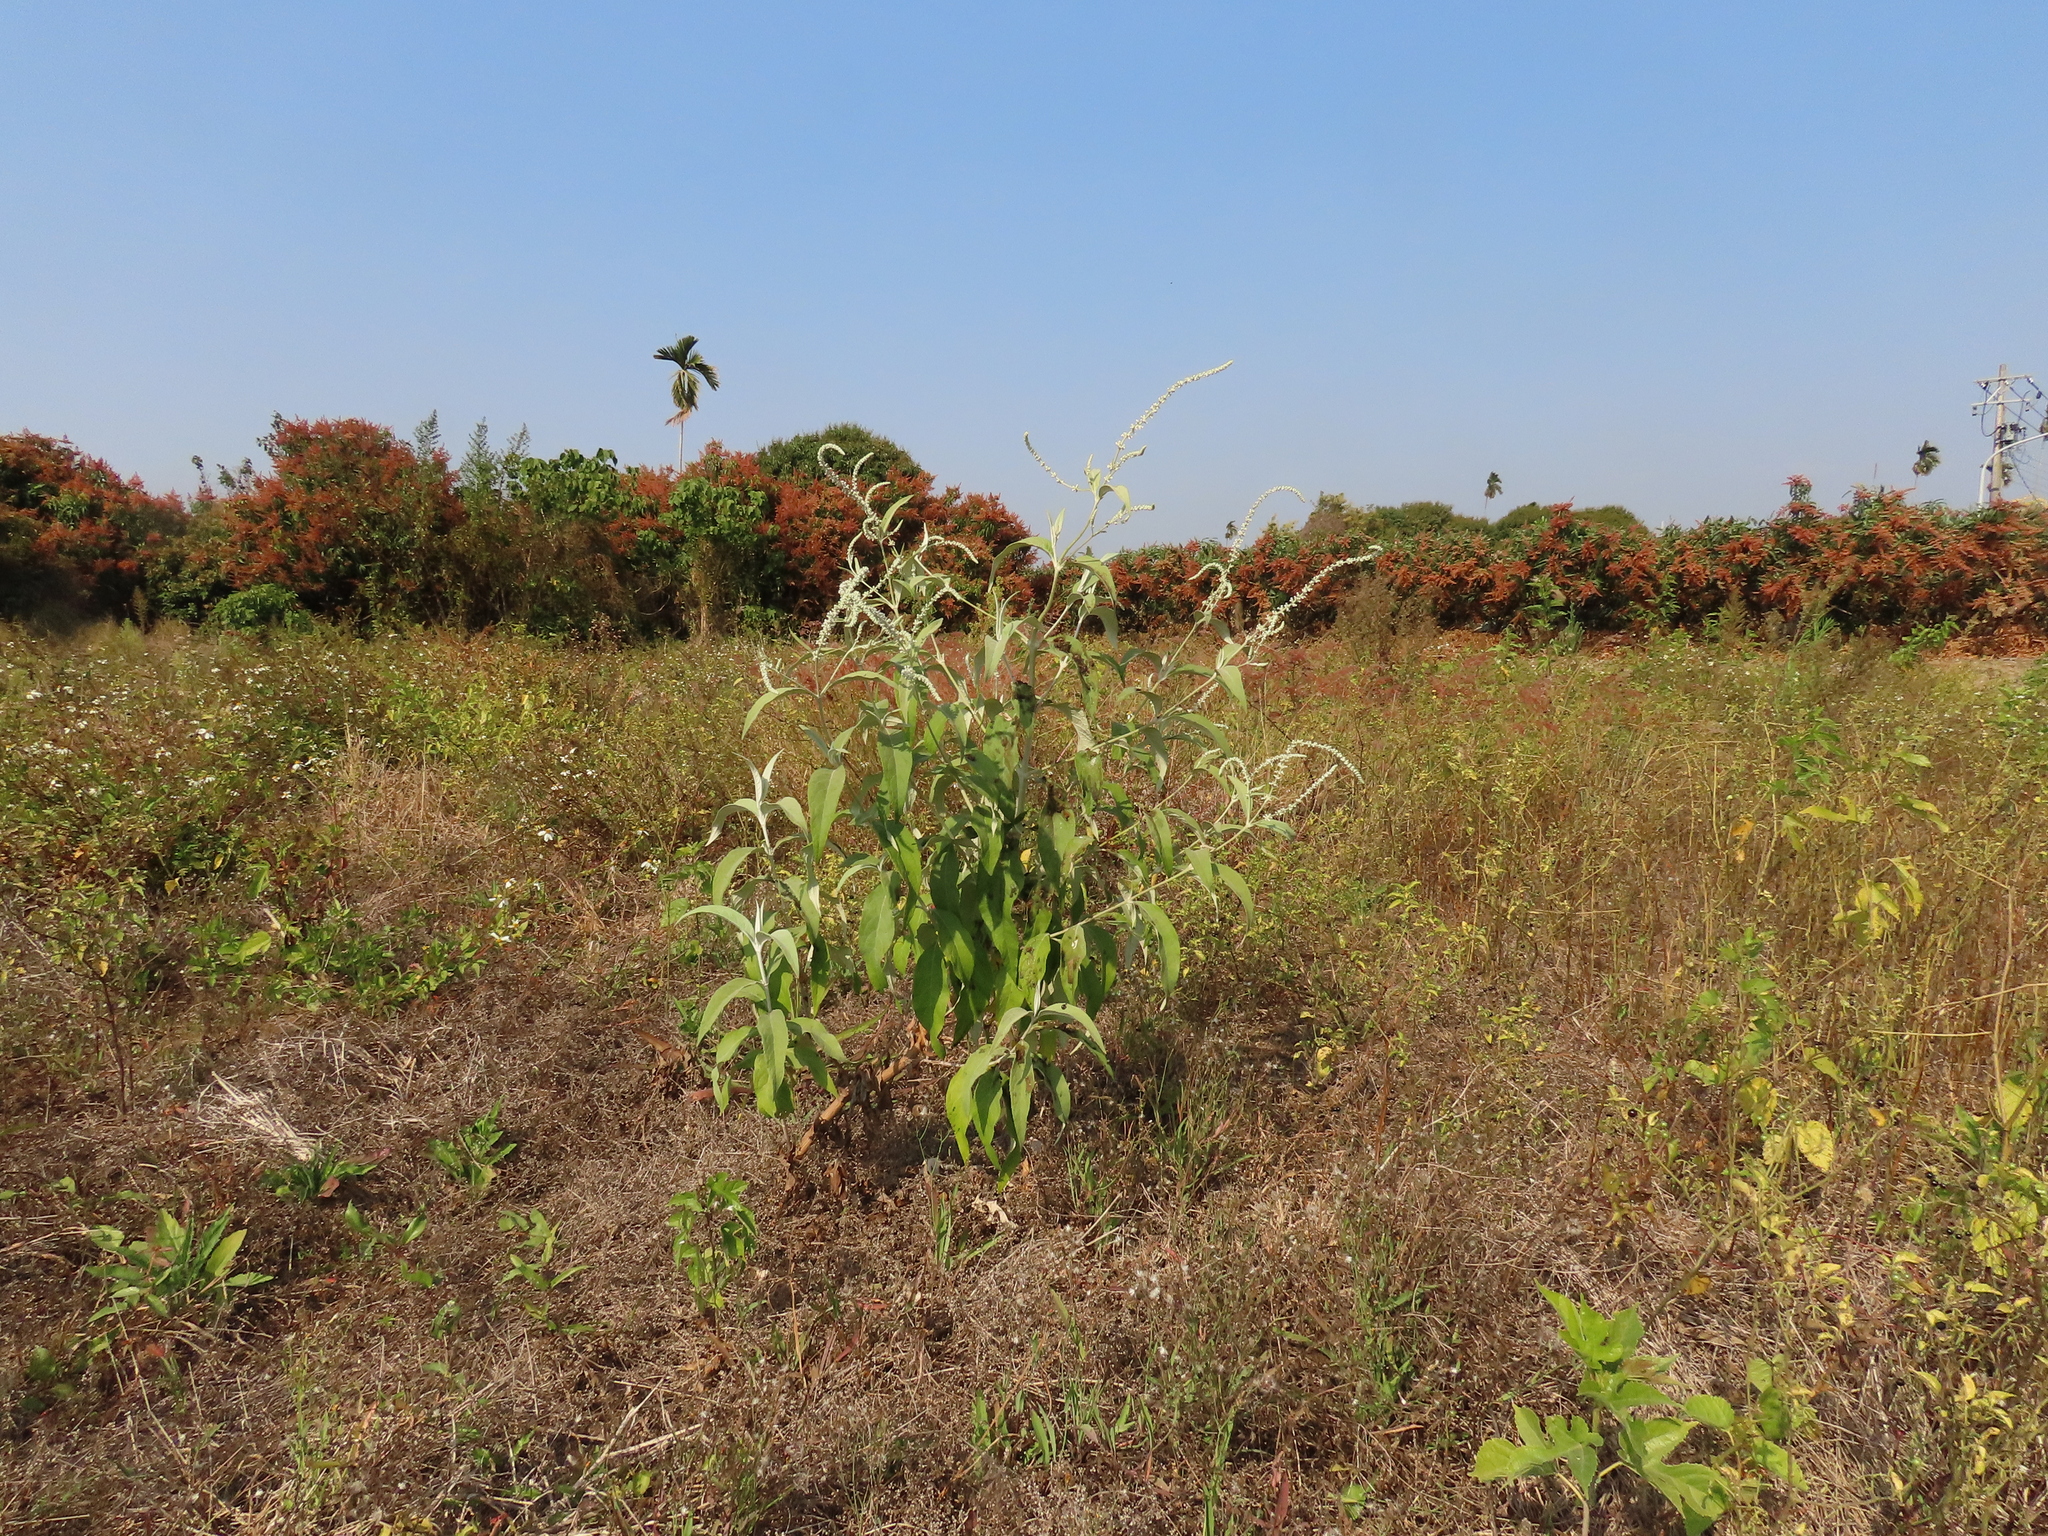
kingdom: Plantae
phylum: Tracheophyta
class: Magnoliopsida
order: Lamiales
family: Scrophulariaceae
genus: Buddleja
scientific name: Buddleja asiatica
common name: Dog tail
